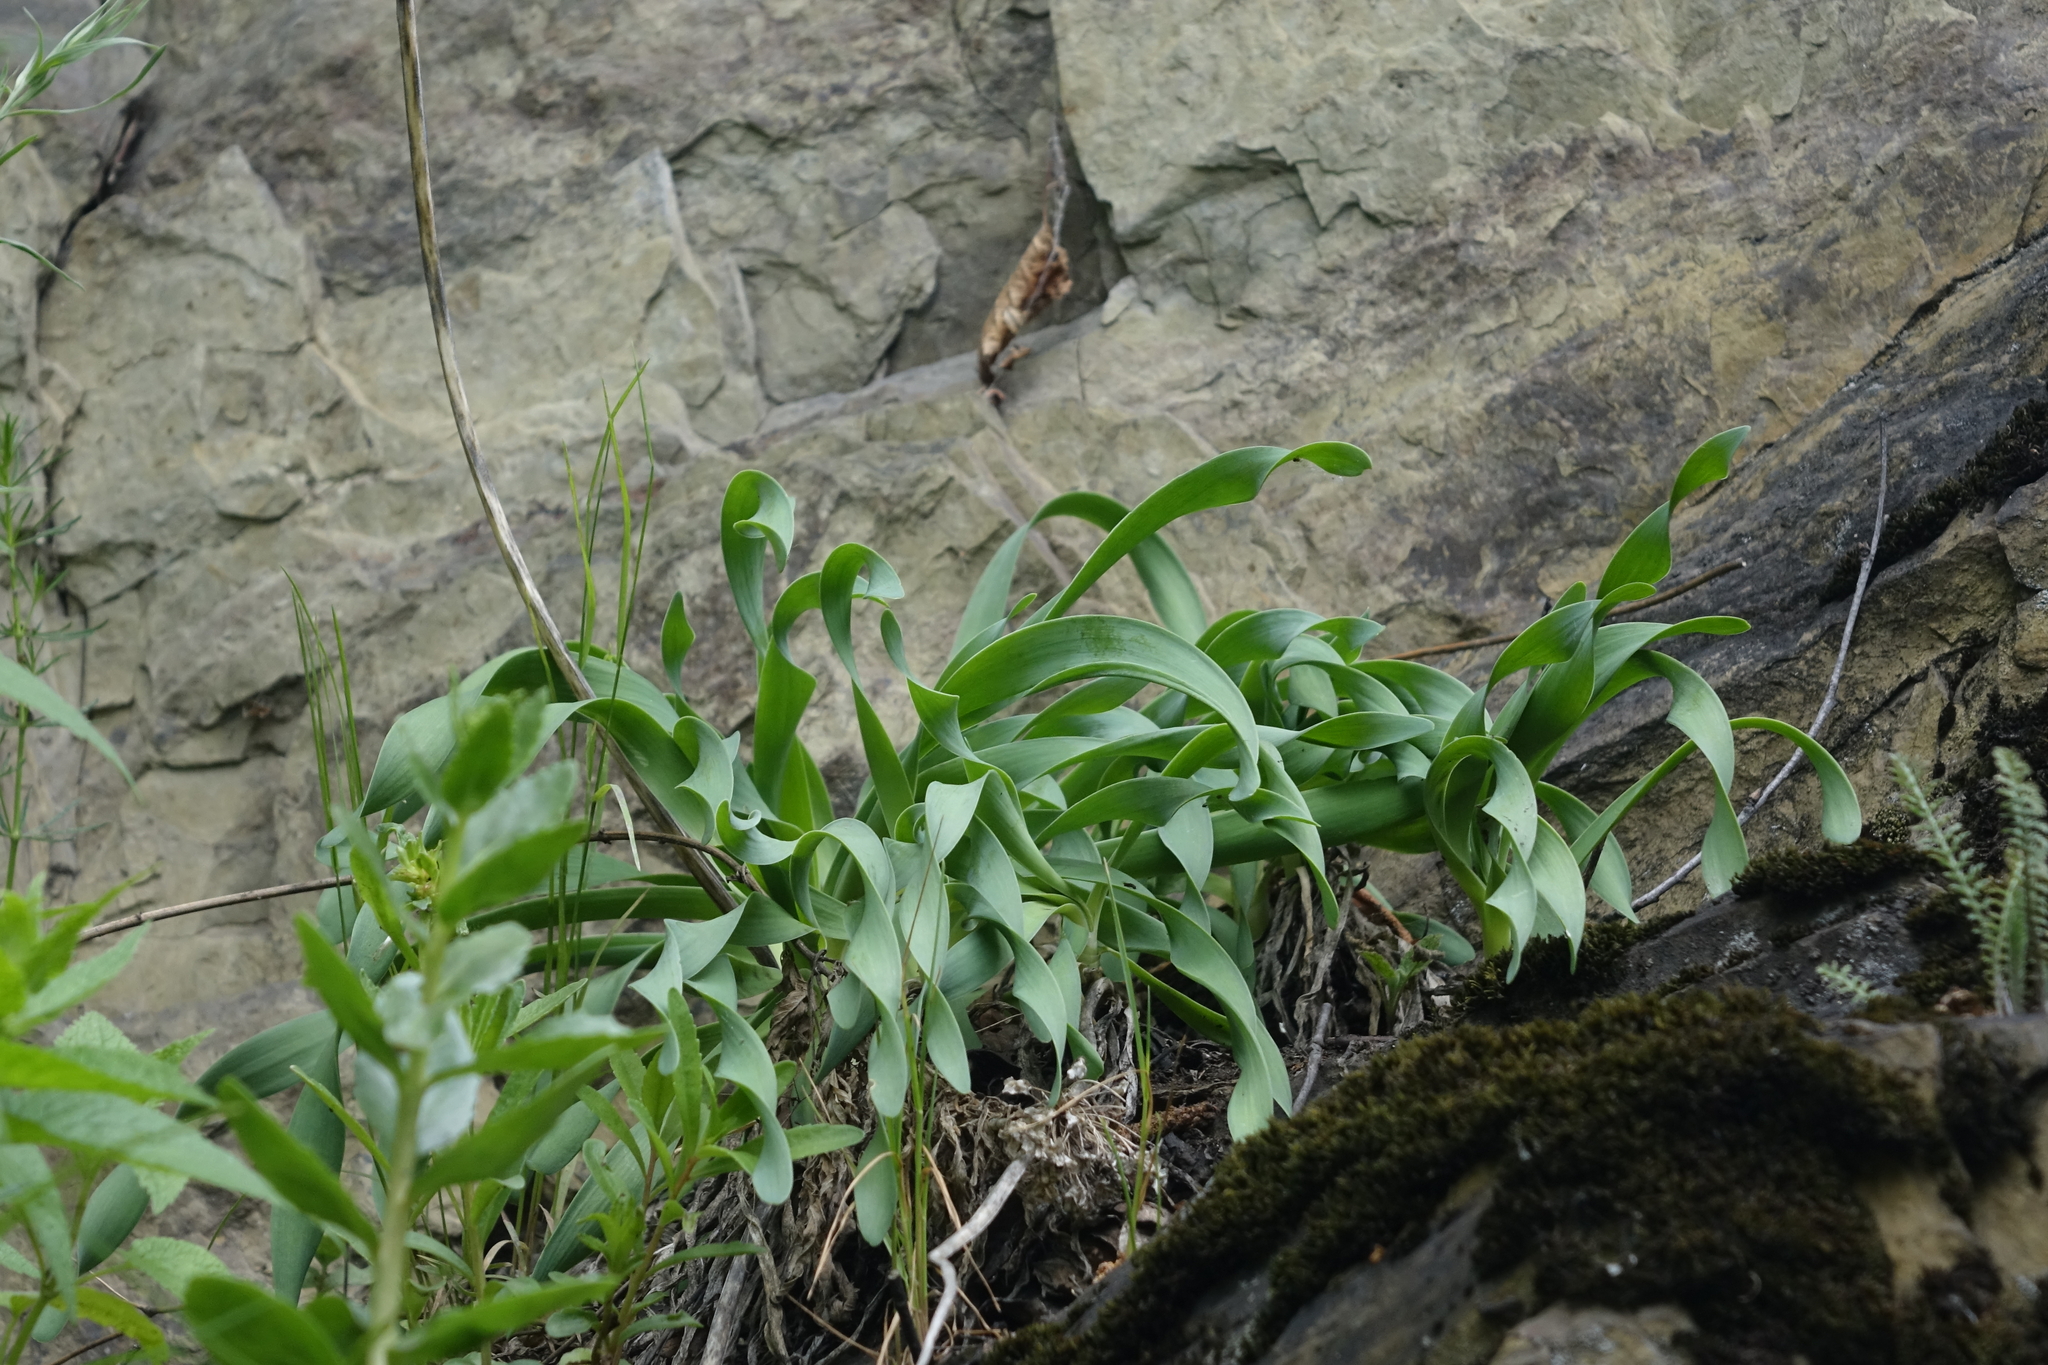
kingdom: Plantae
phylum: Tracheophyta
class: Liliopsida
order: Asparagales
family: Amaryllidaceae
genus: Allium
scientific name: Allium nutans
